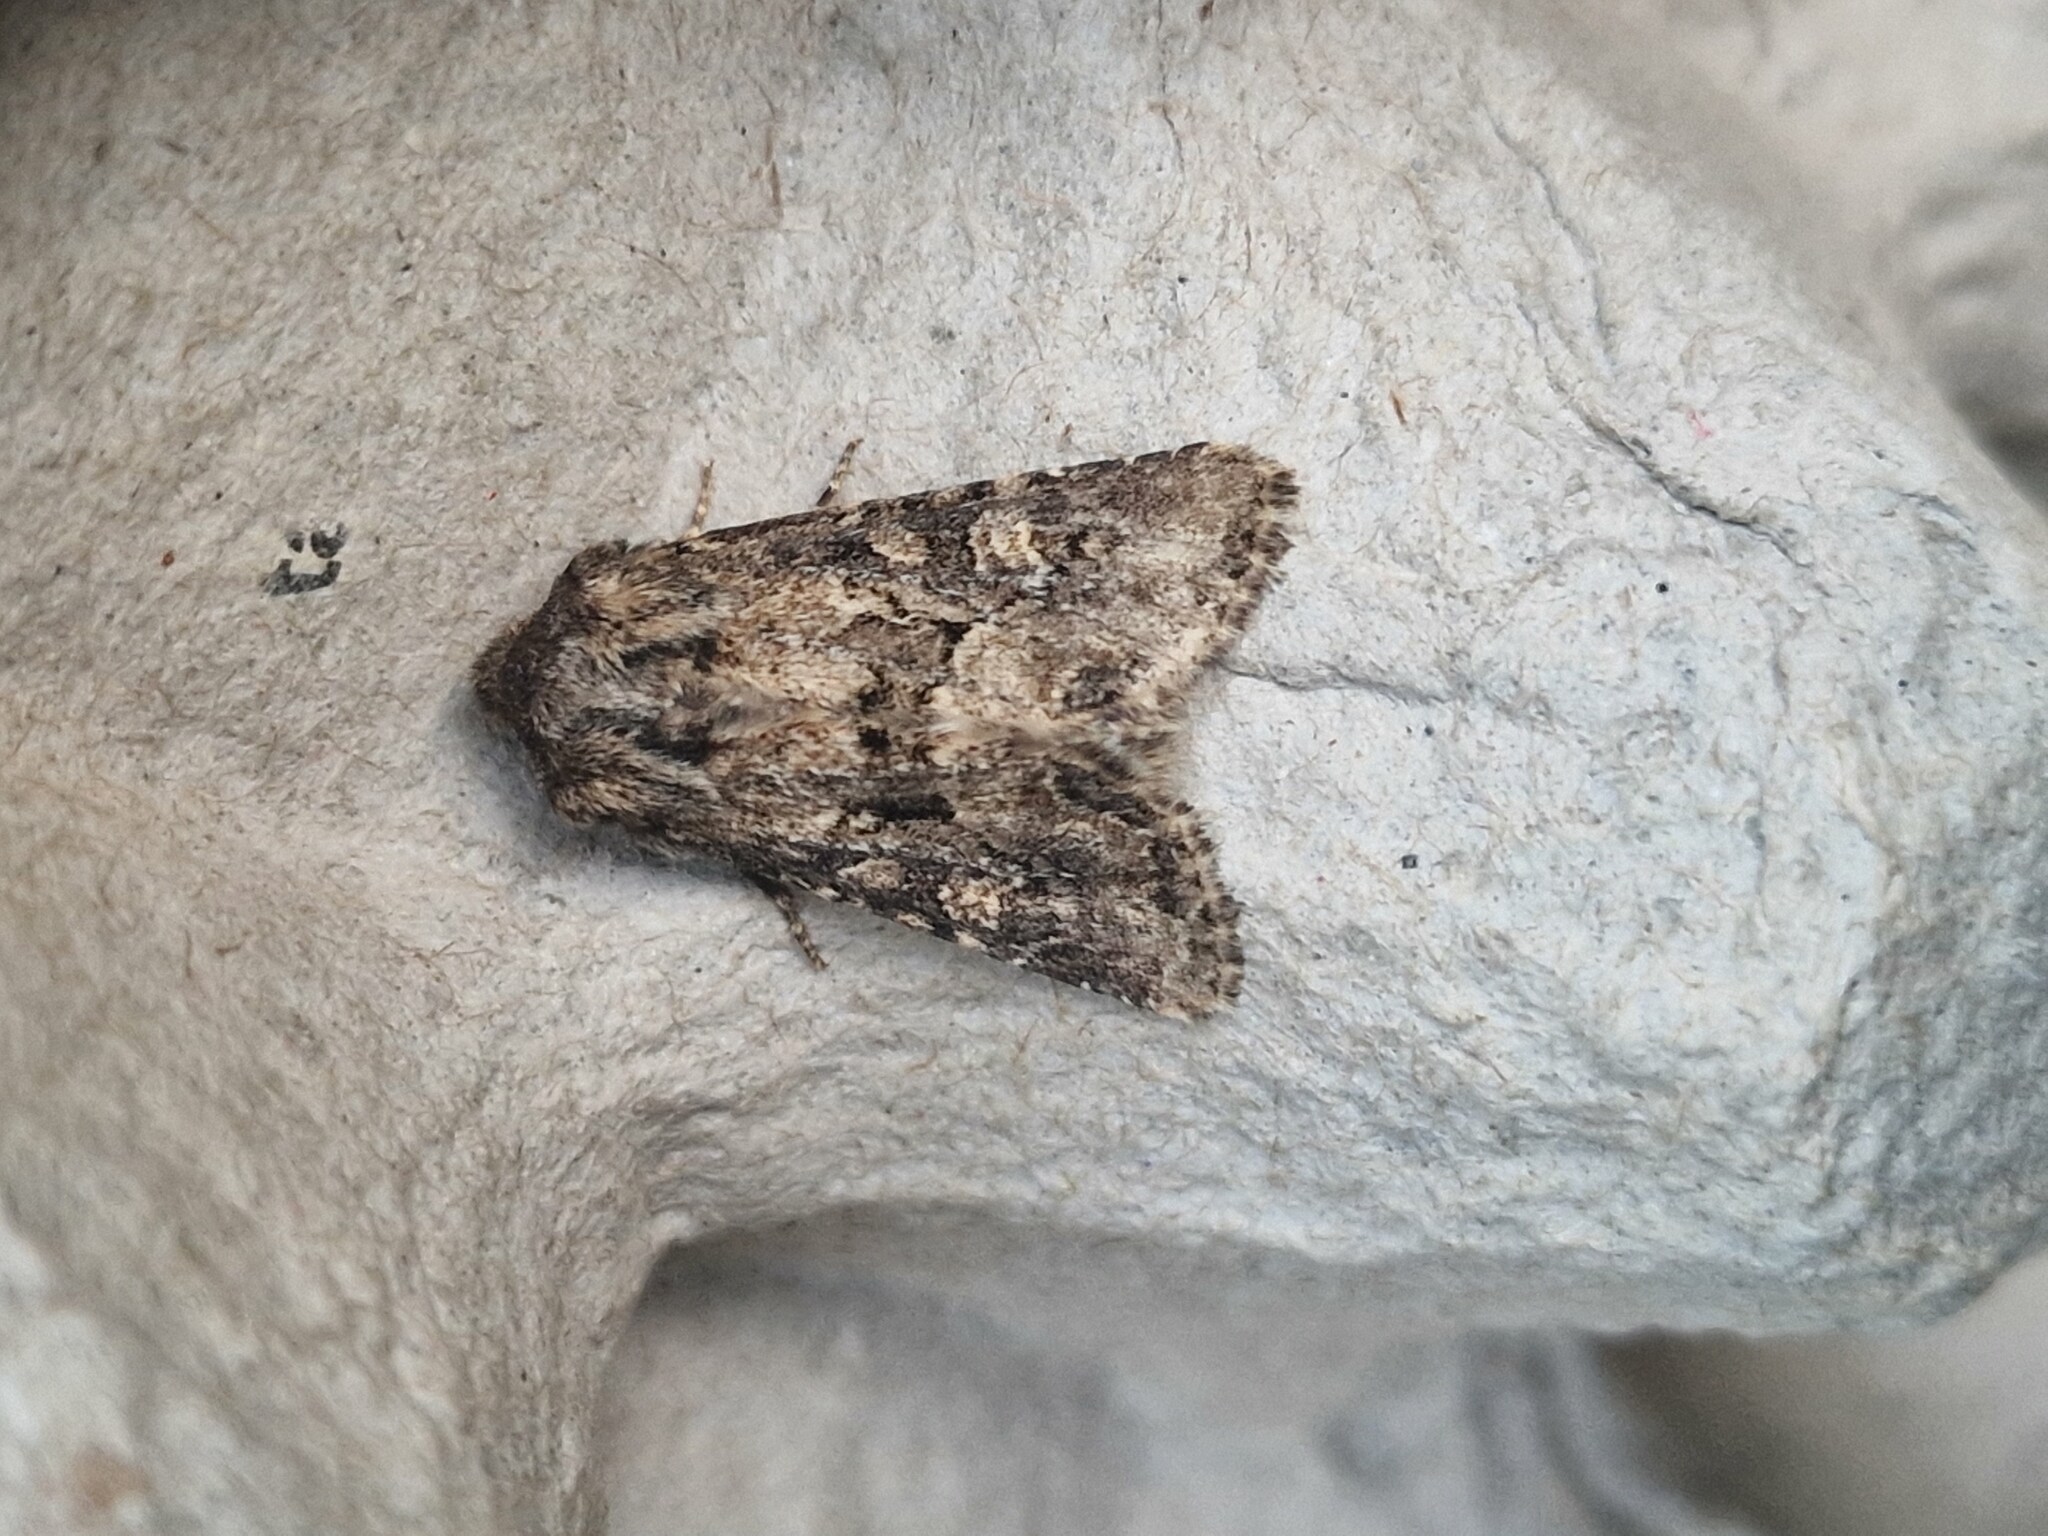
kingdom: Animalia
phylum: Arthropoda
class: Insecta
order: Lepidoptera
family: Noctuidae
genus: Luperina
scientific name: Luperina testacea
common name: Flounced rustic
